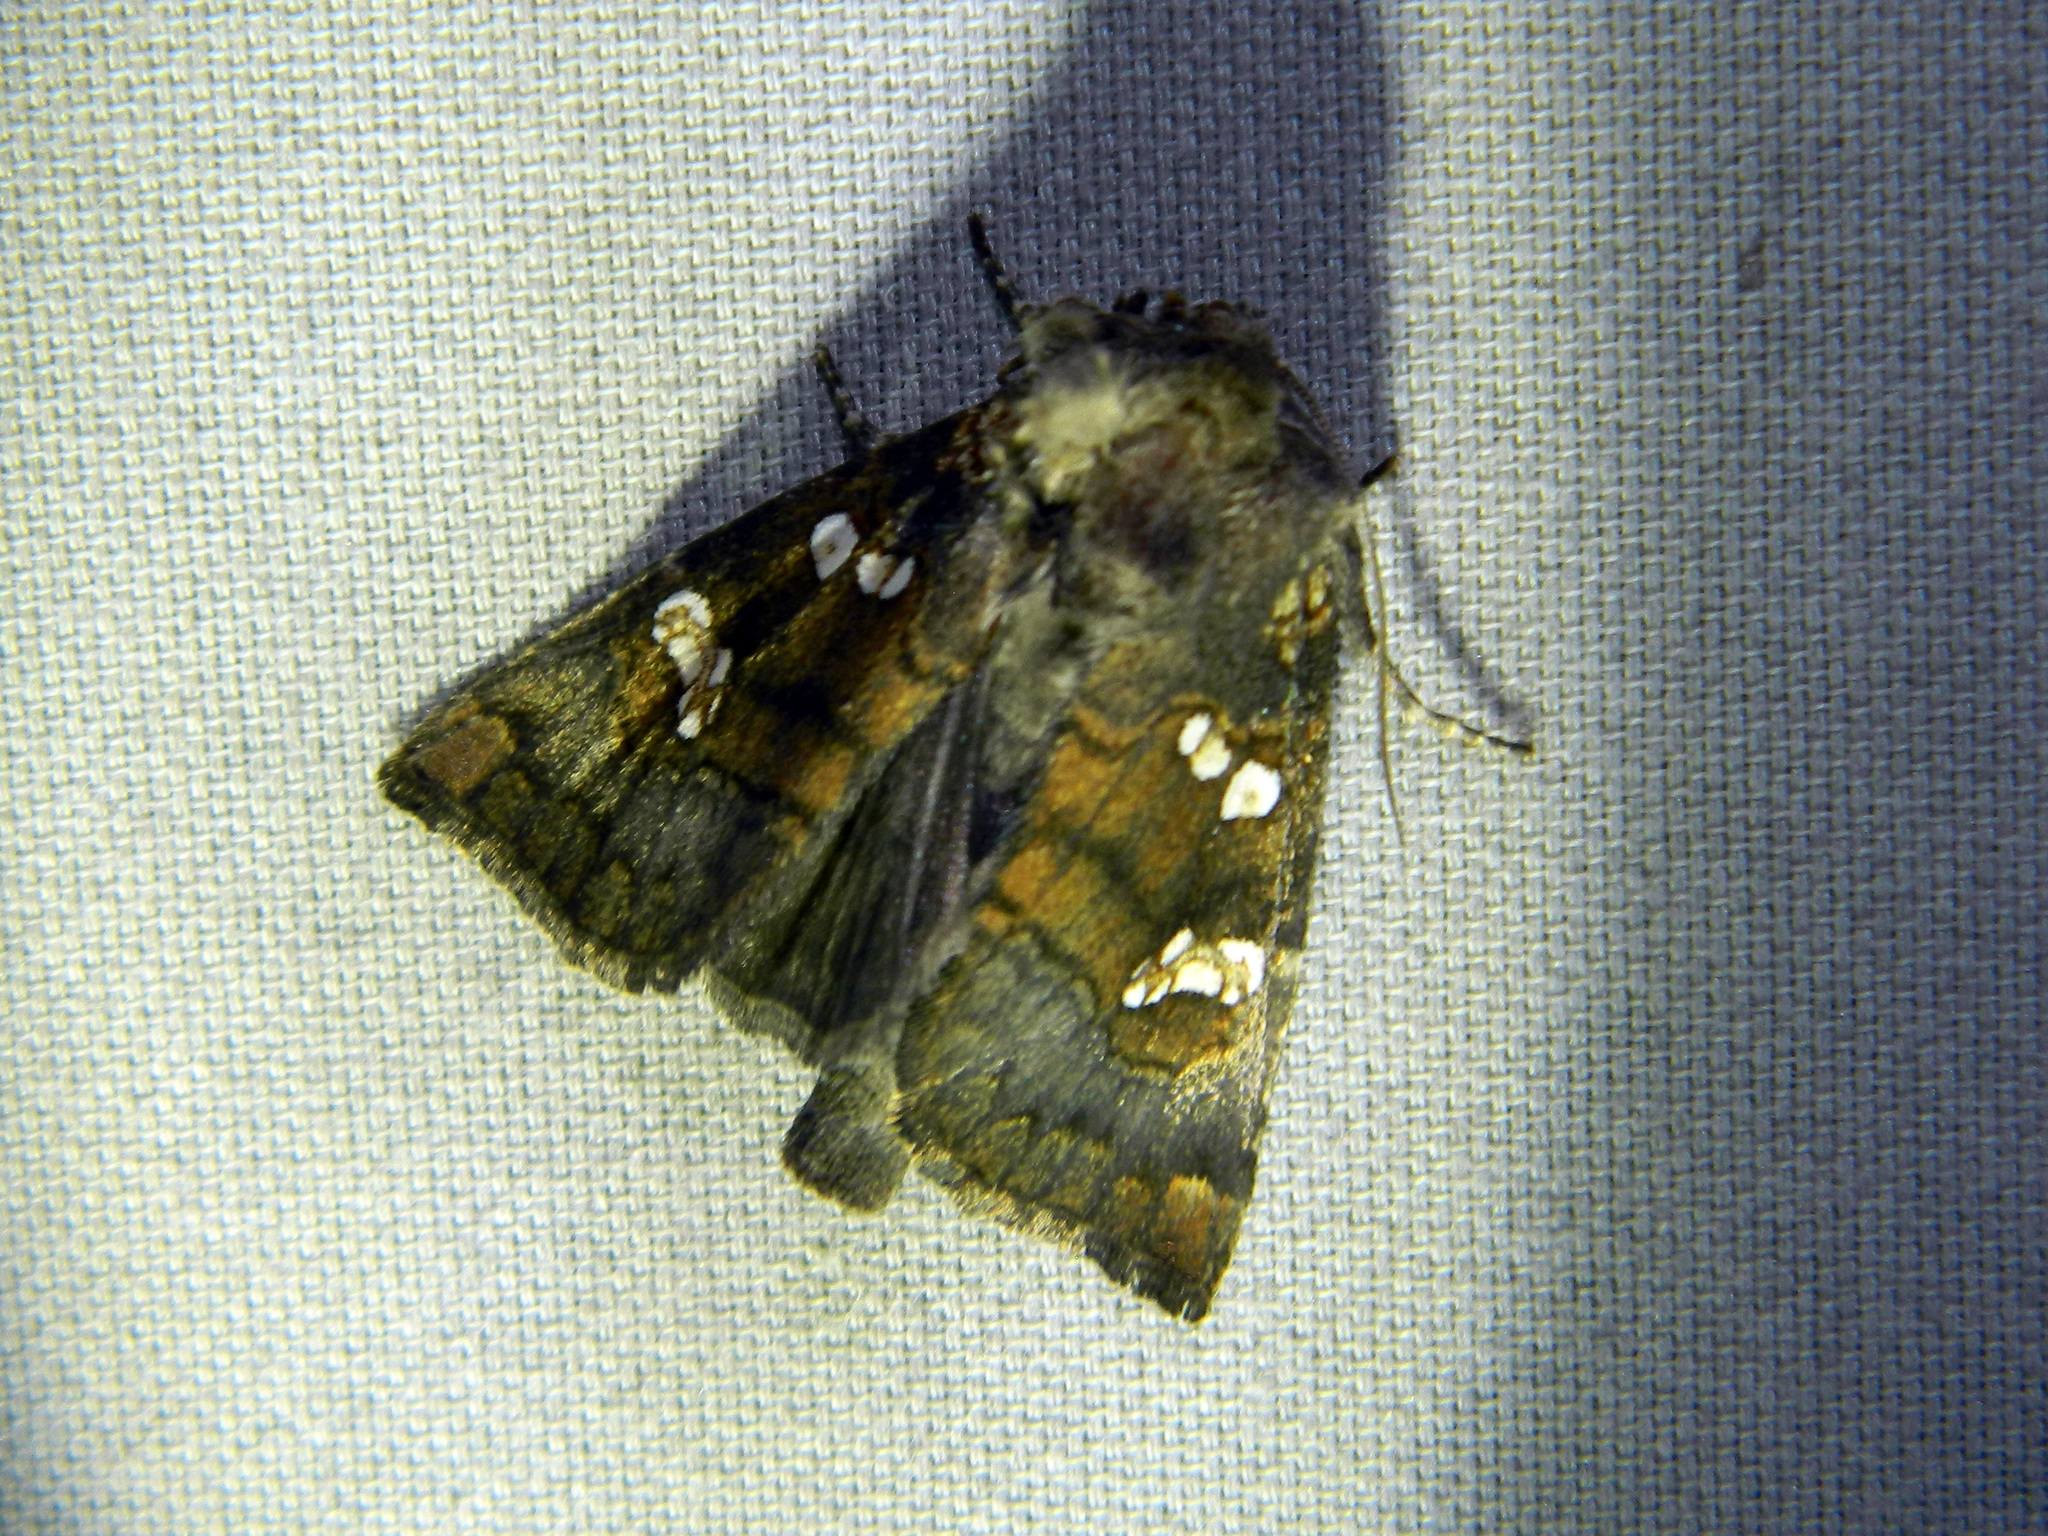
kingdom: Animalia
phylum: Arthropoda
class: Insecta
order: Lepidoptera
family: Noctuidae
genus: Papaipema
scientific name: Papaipema unimoda
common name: Meadow rue borer moth
